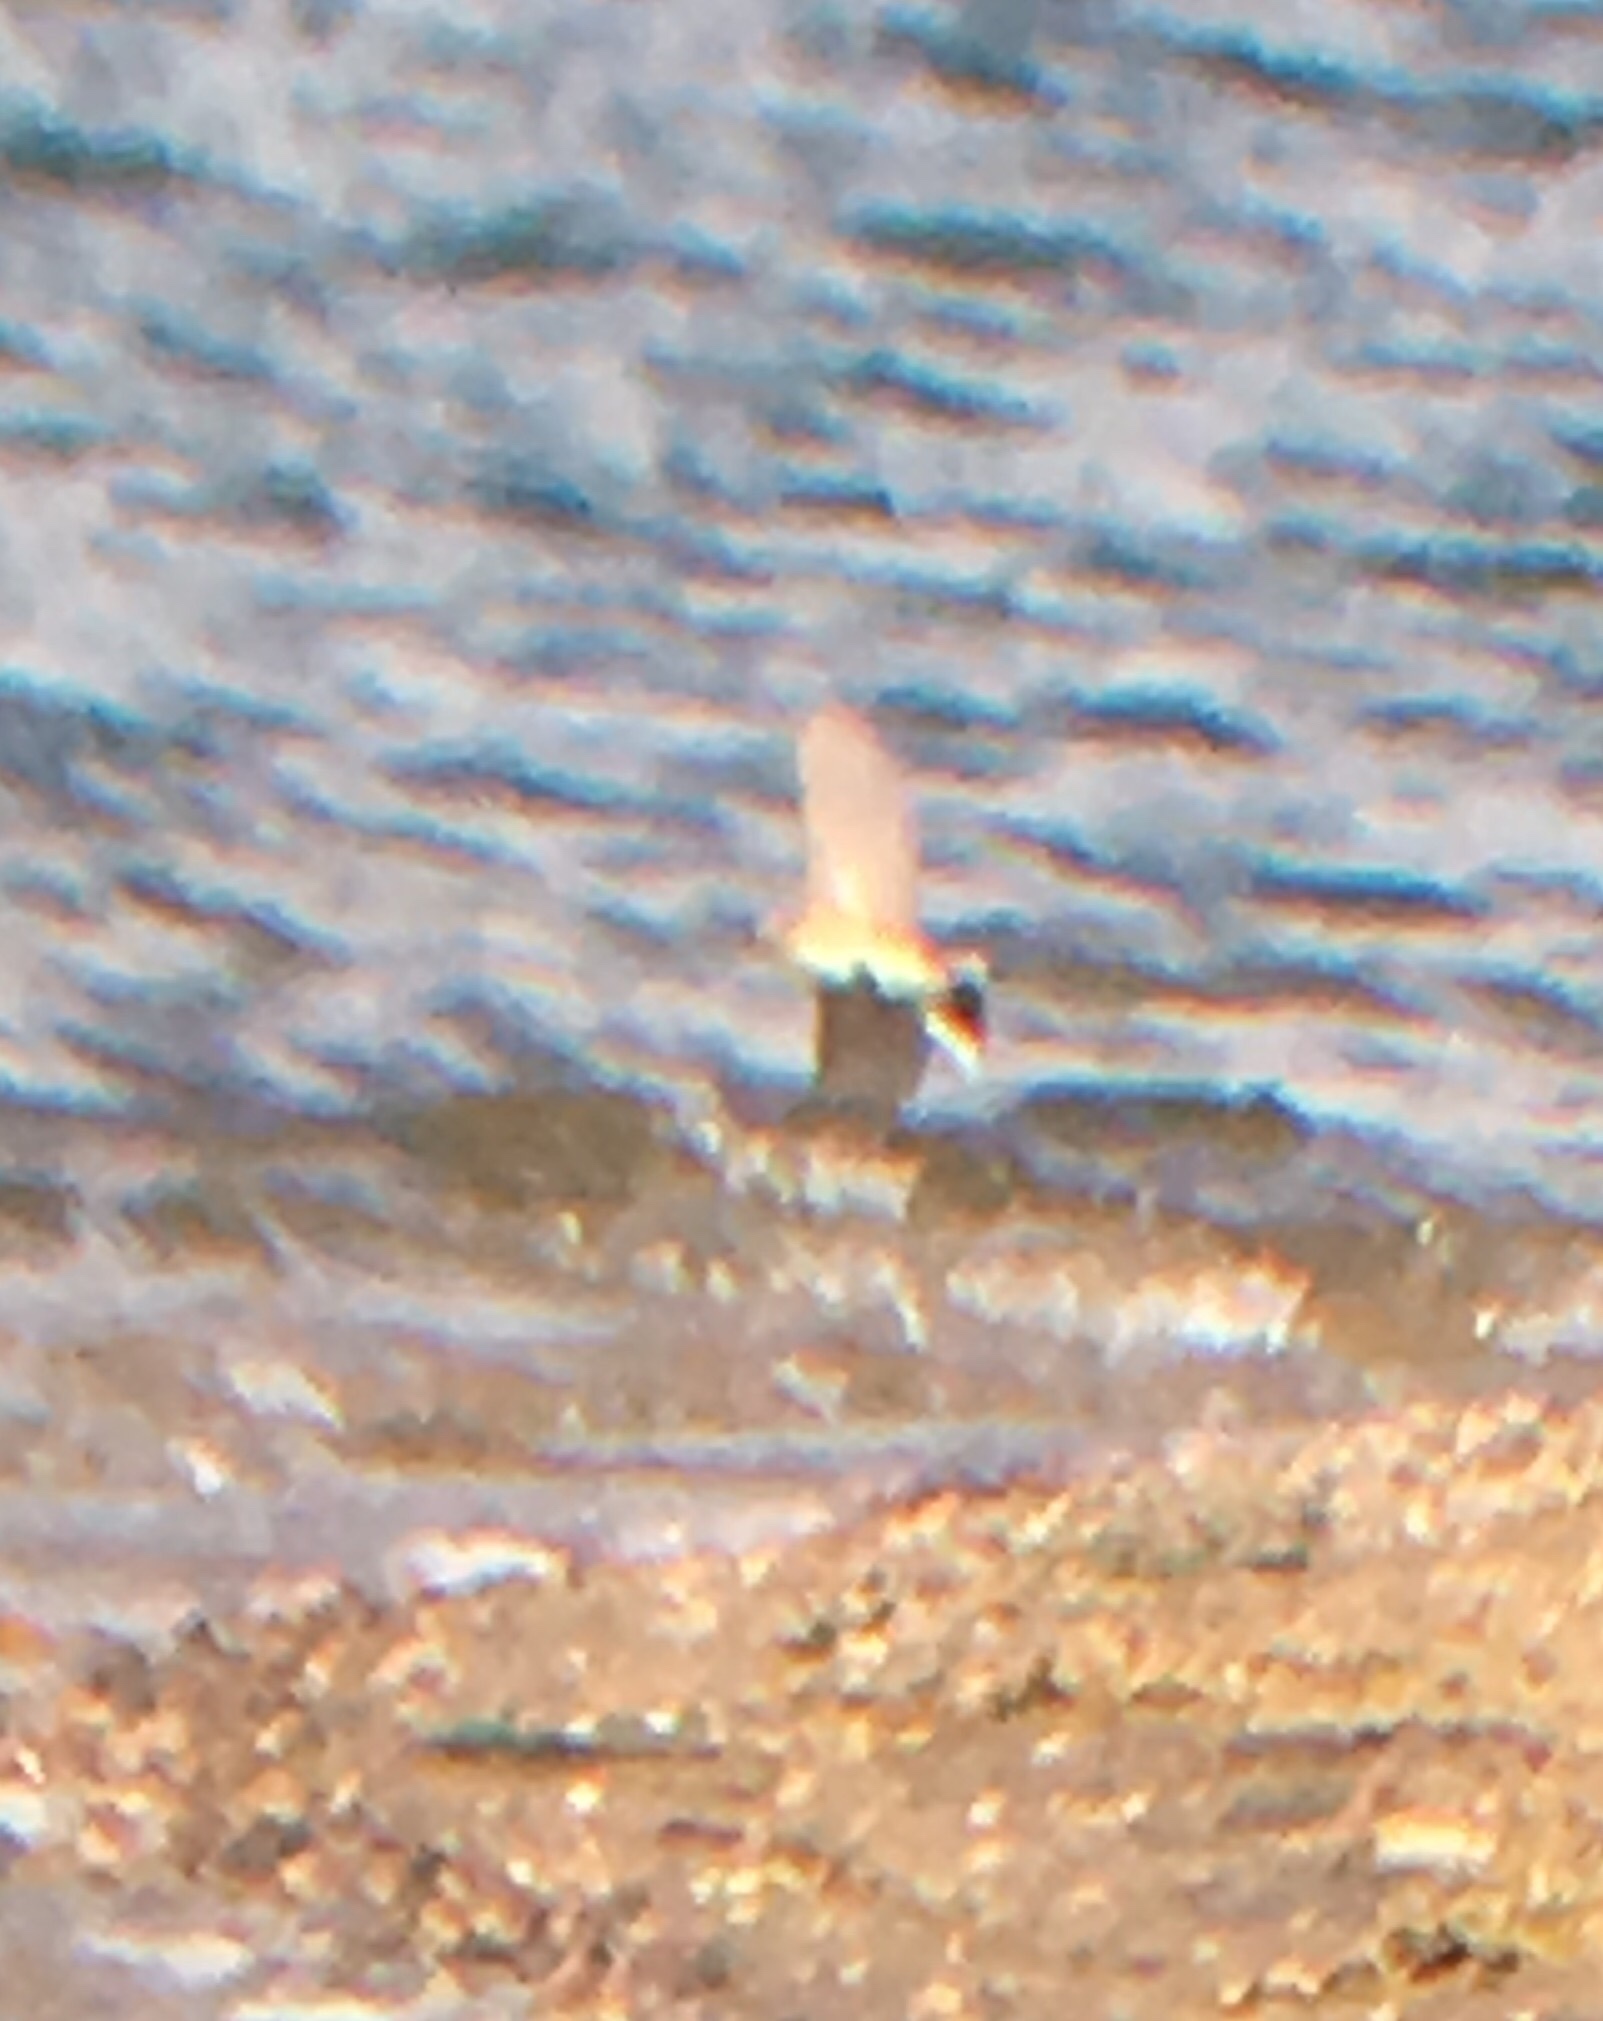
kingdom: Animalia
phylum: Chordata
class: Aves
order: Passeriformes
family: Motacillidae
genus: Anthus
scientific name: Anthus rubescens
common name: Buff-bellied pipit
